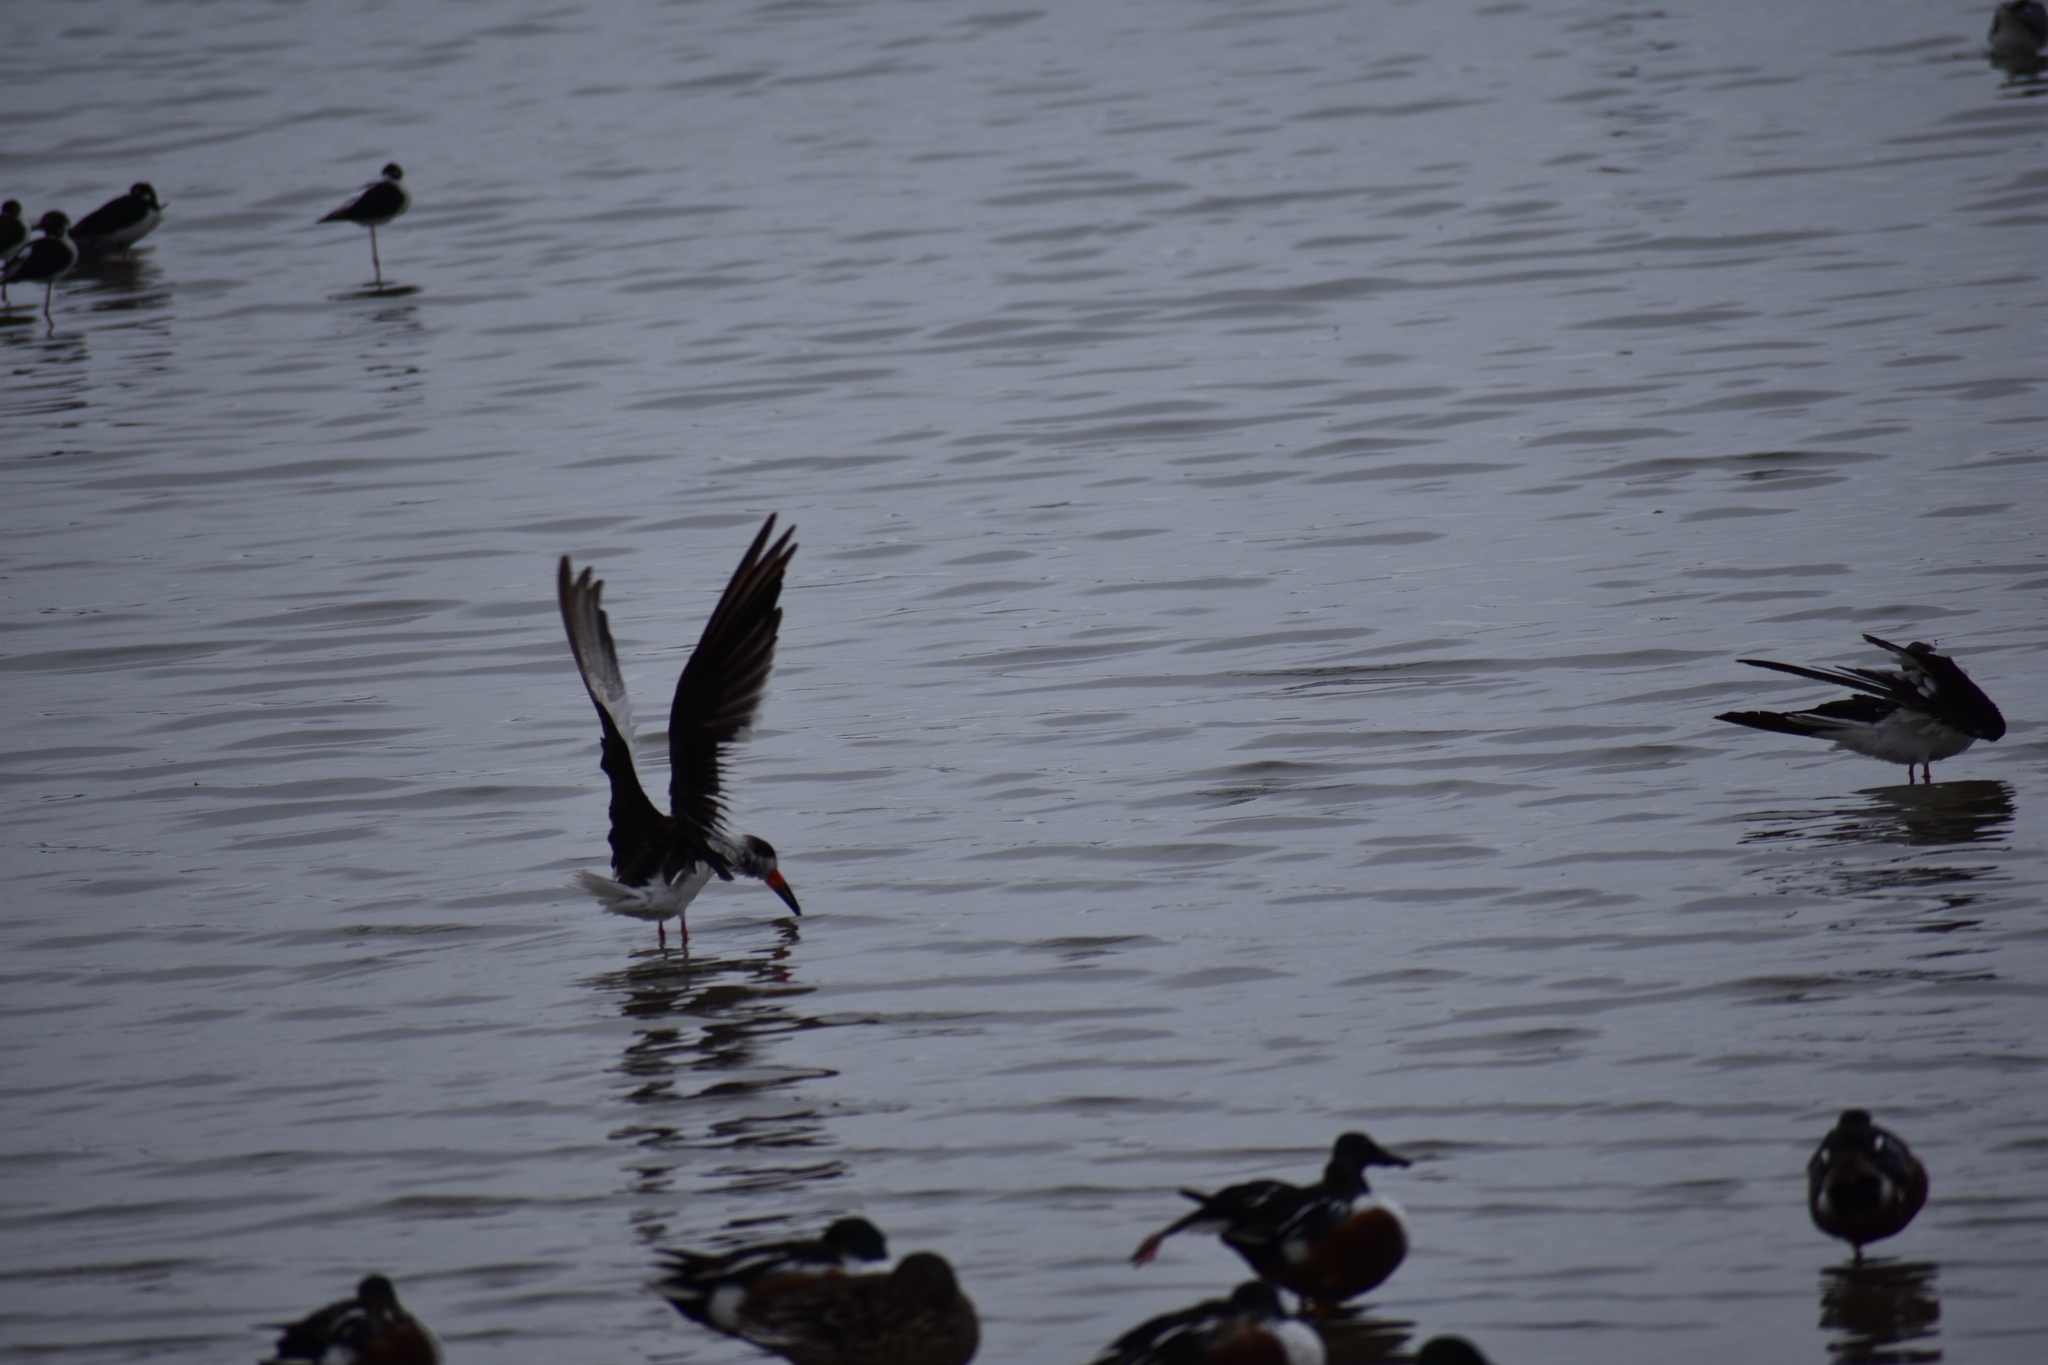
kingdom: Animalia
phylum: Chordata
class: Aves
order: Charadriiformes
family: Laridae
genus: Rynchops
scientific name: Rynchops niger
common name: Black skimmer
